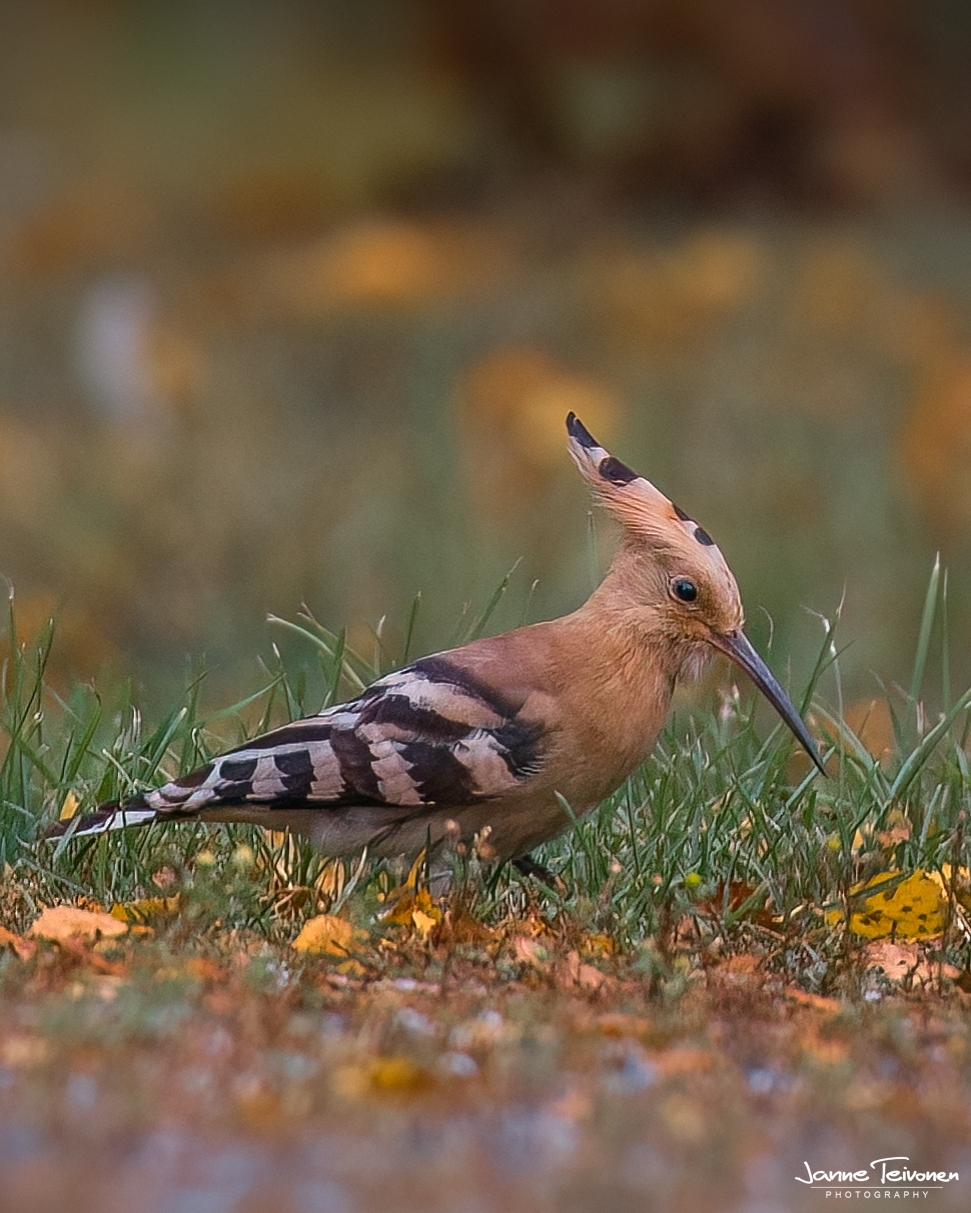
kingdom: Animalia
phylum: Chordata
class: Aves
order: Bucerotiformes
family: Upupidae
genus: Upupa
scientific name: Upupa epops
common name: Eurasian hoopoe
